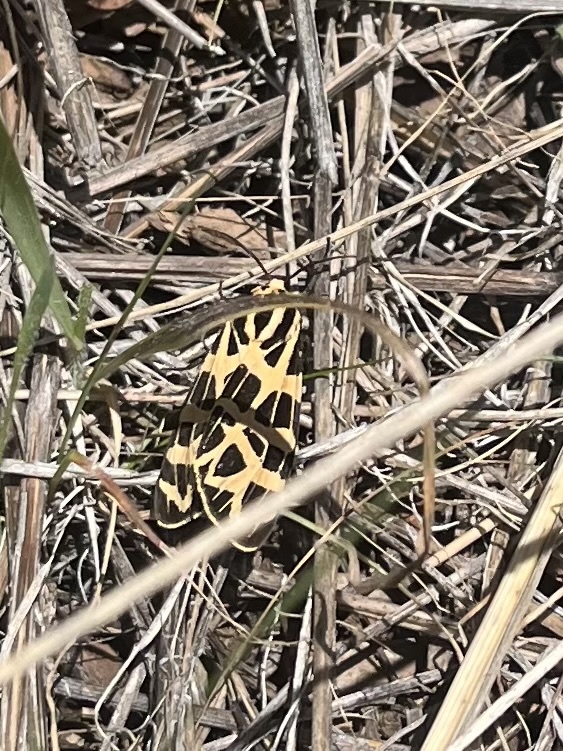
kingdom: Animalia
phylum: Arthropoda
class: Insecta
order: Lepidoptera
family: Erebidae
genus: Apantesis
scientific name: Apantesis
